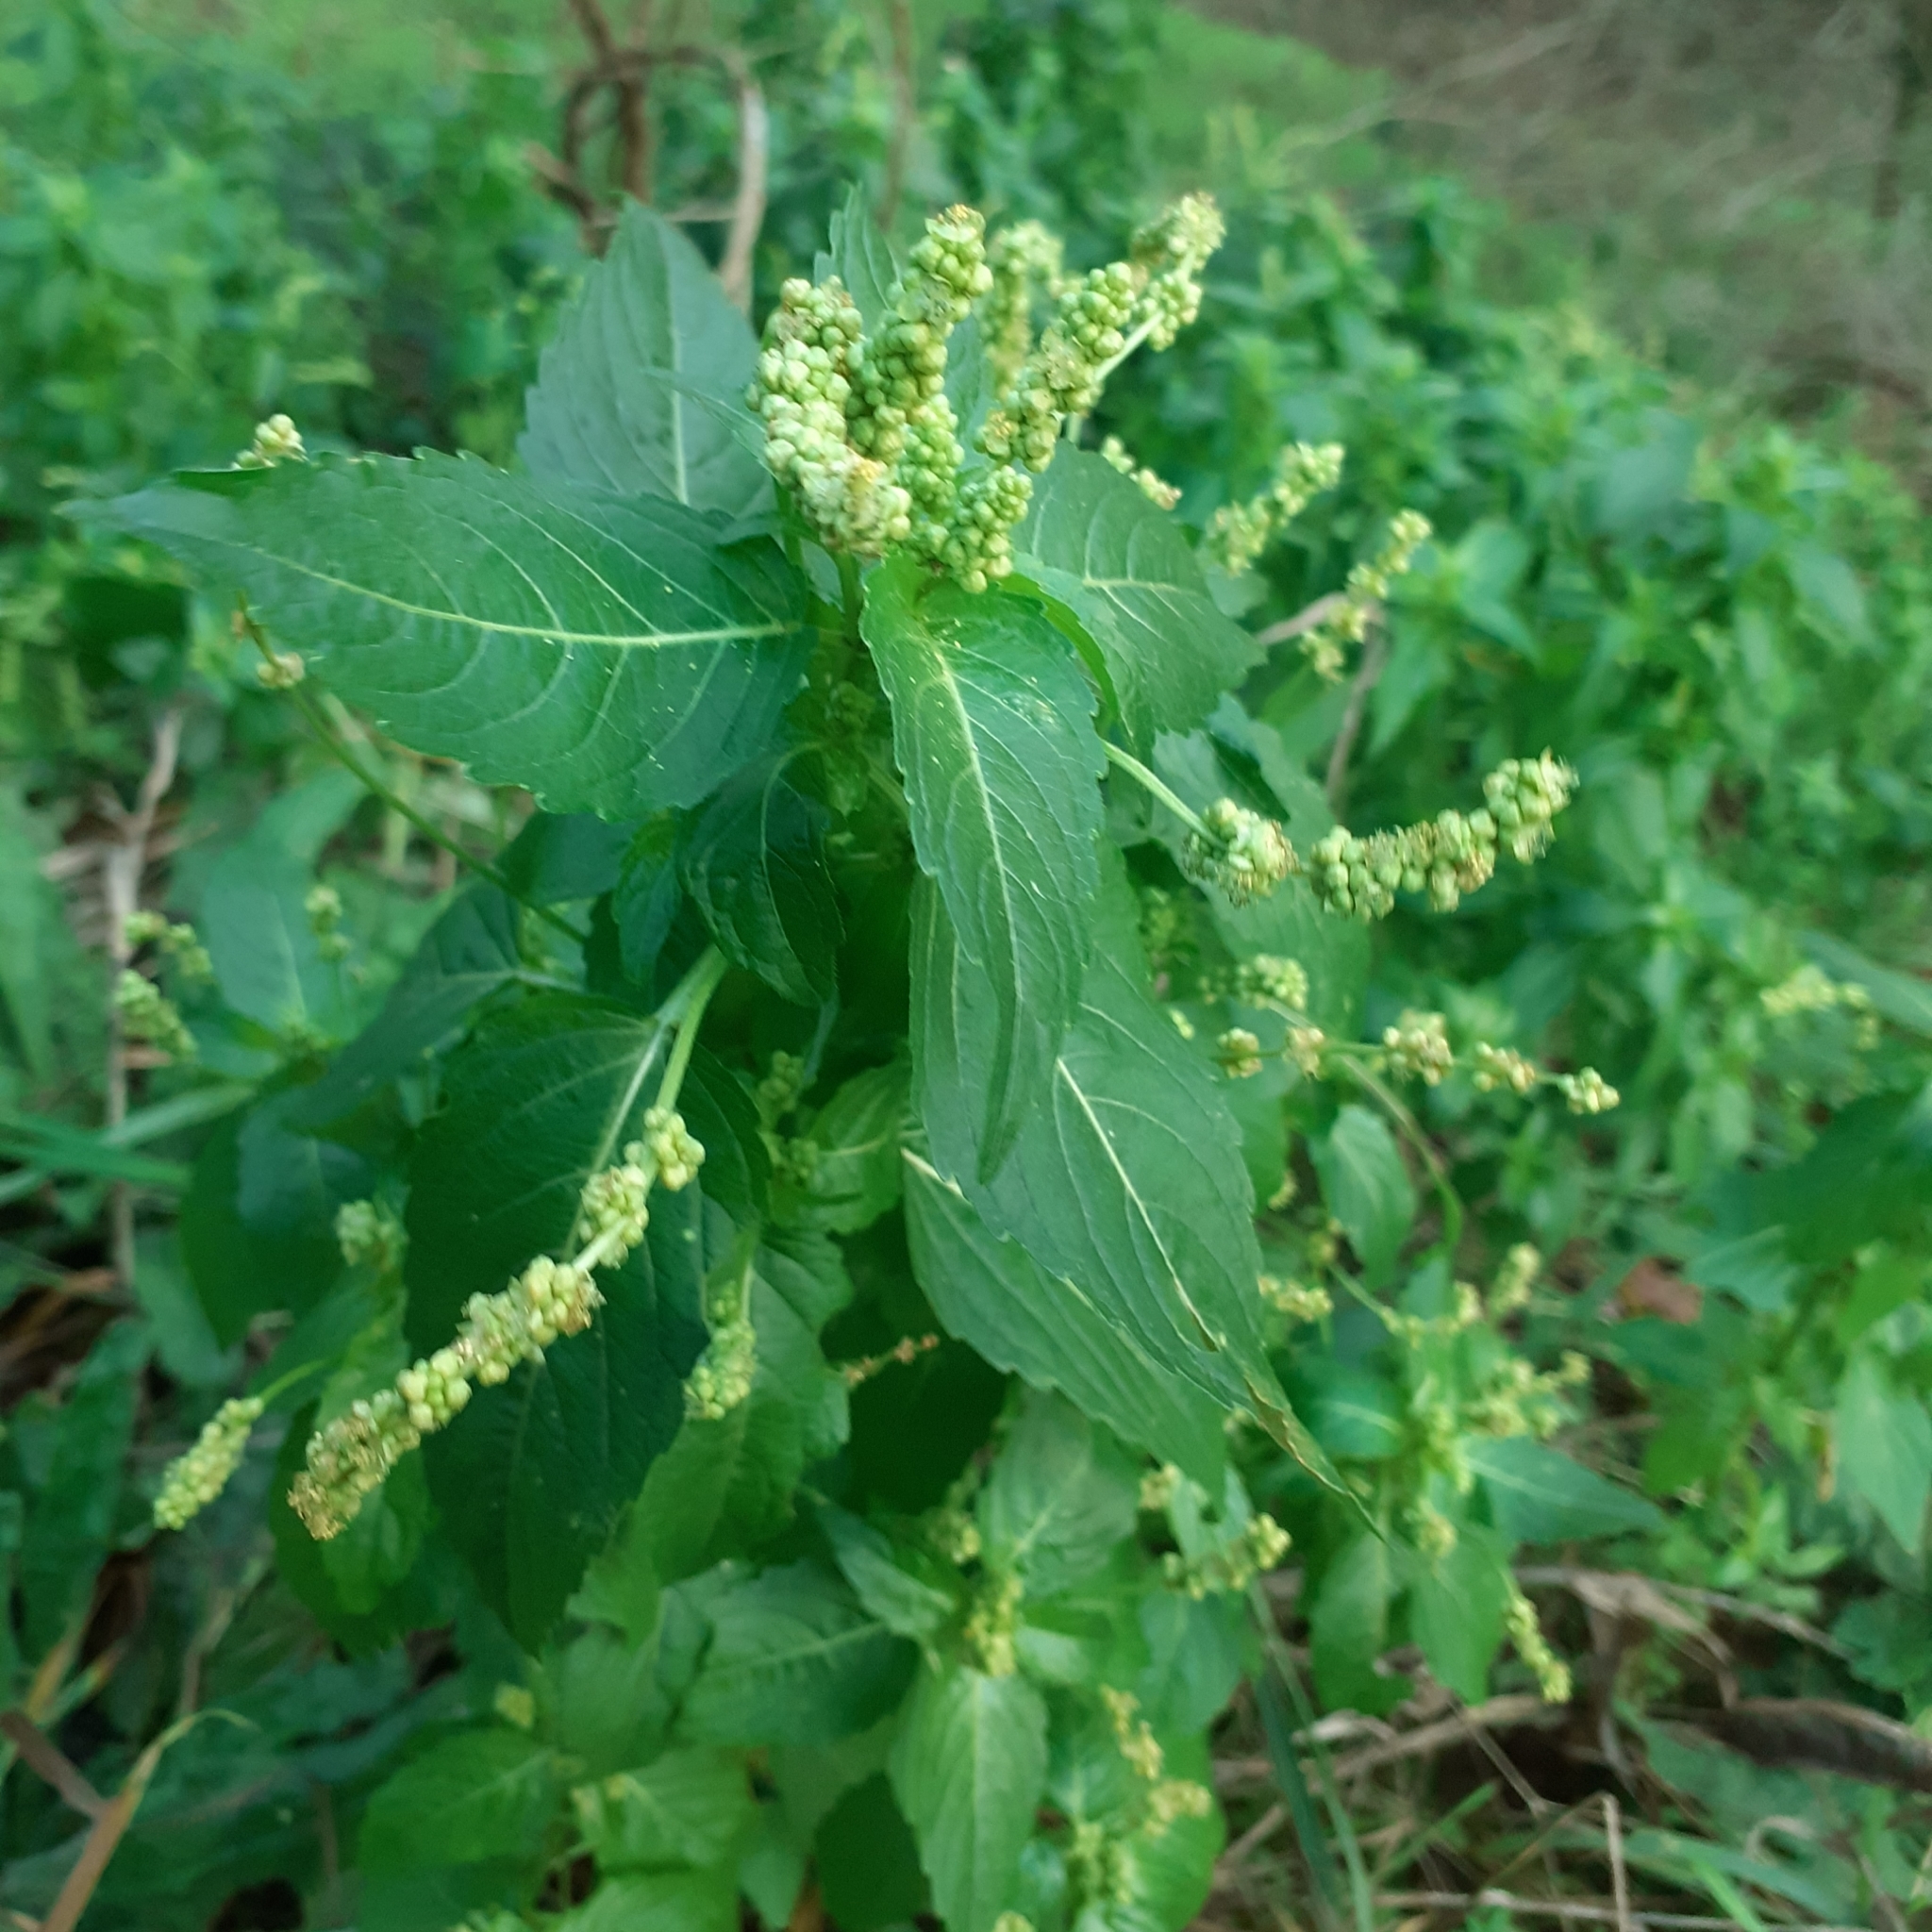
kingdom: Plantae
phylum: Tracheophyta
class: Magnoliopsida
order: Malpighiales
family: Euphorbiaceae
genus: Mercurialis
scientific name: Mercurialis annua
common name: Annual mercury
